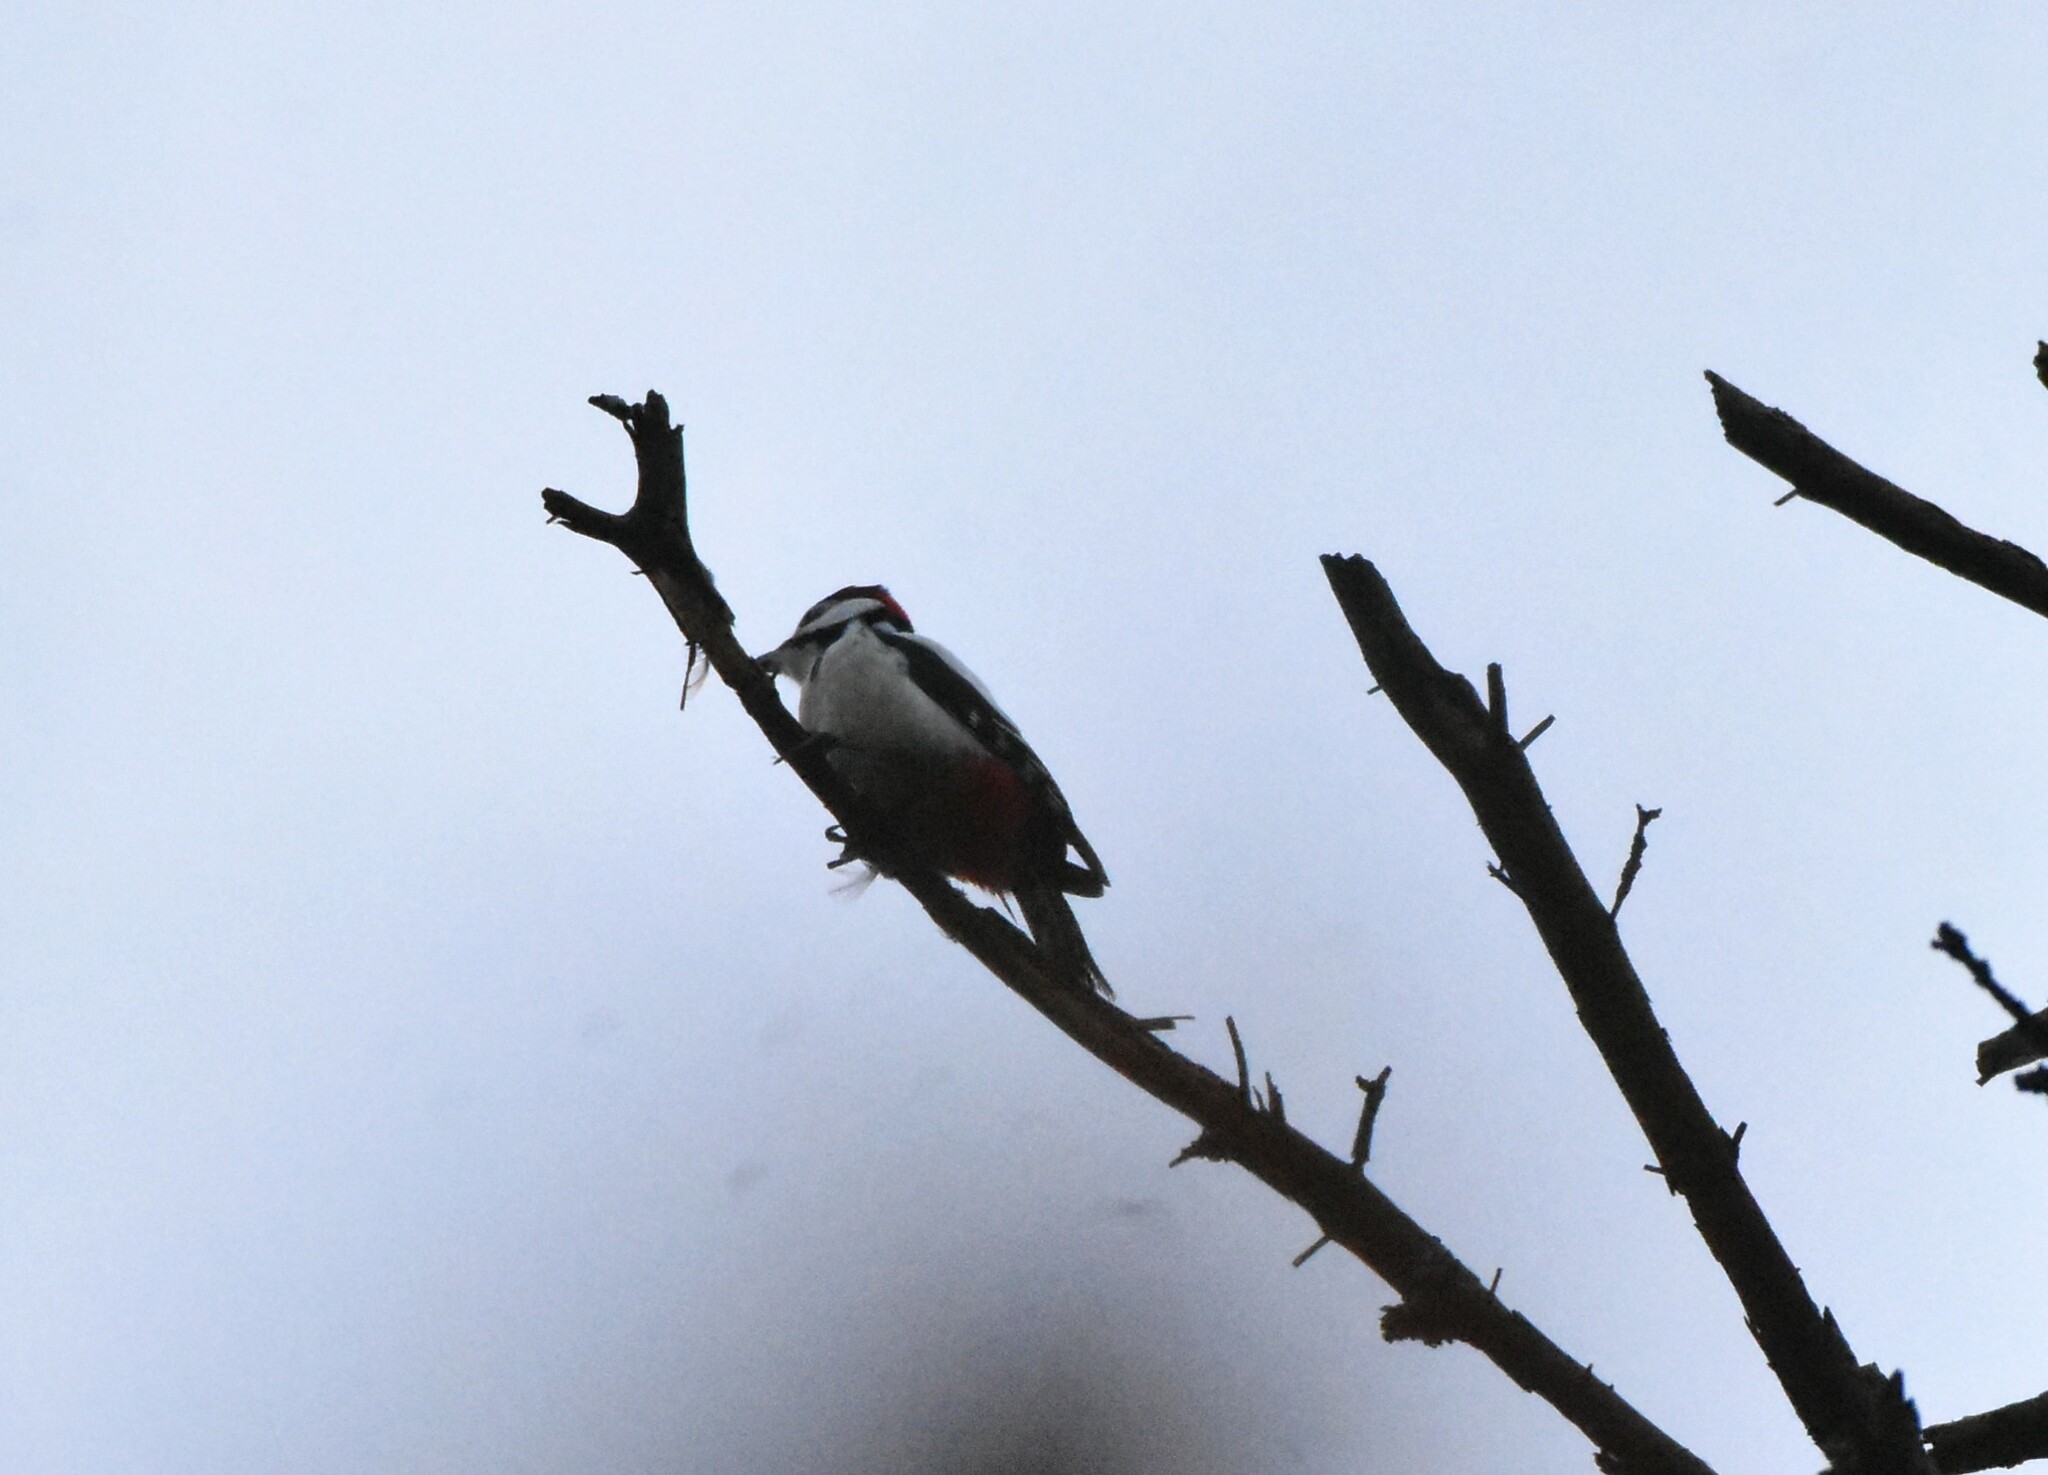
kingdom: Animalia
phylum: Chordata
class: Aves
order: Piciformes
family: Picidae
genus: Dendrocopos
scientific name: Dendrocopos major
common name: Great spotted woodpecker
